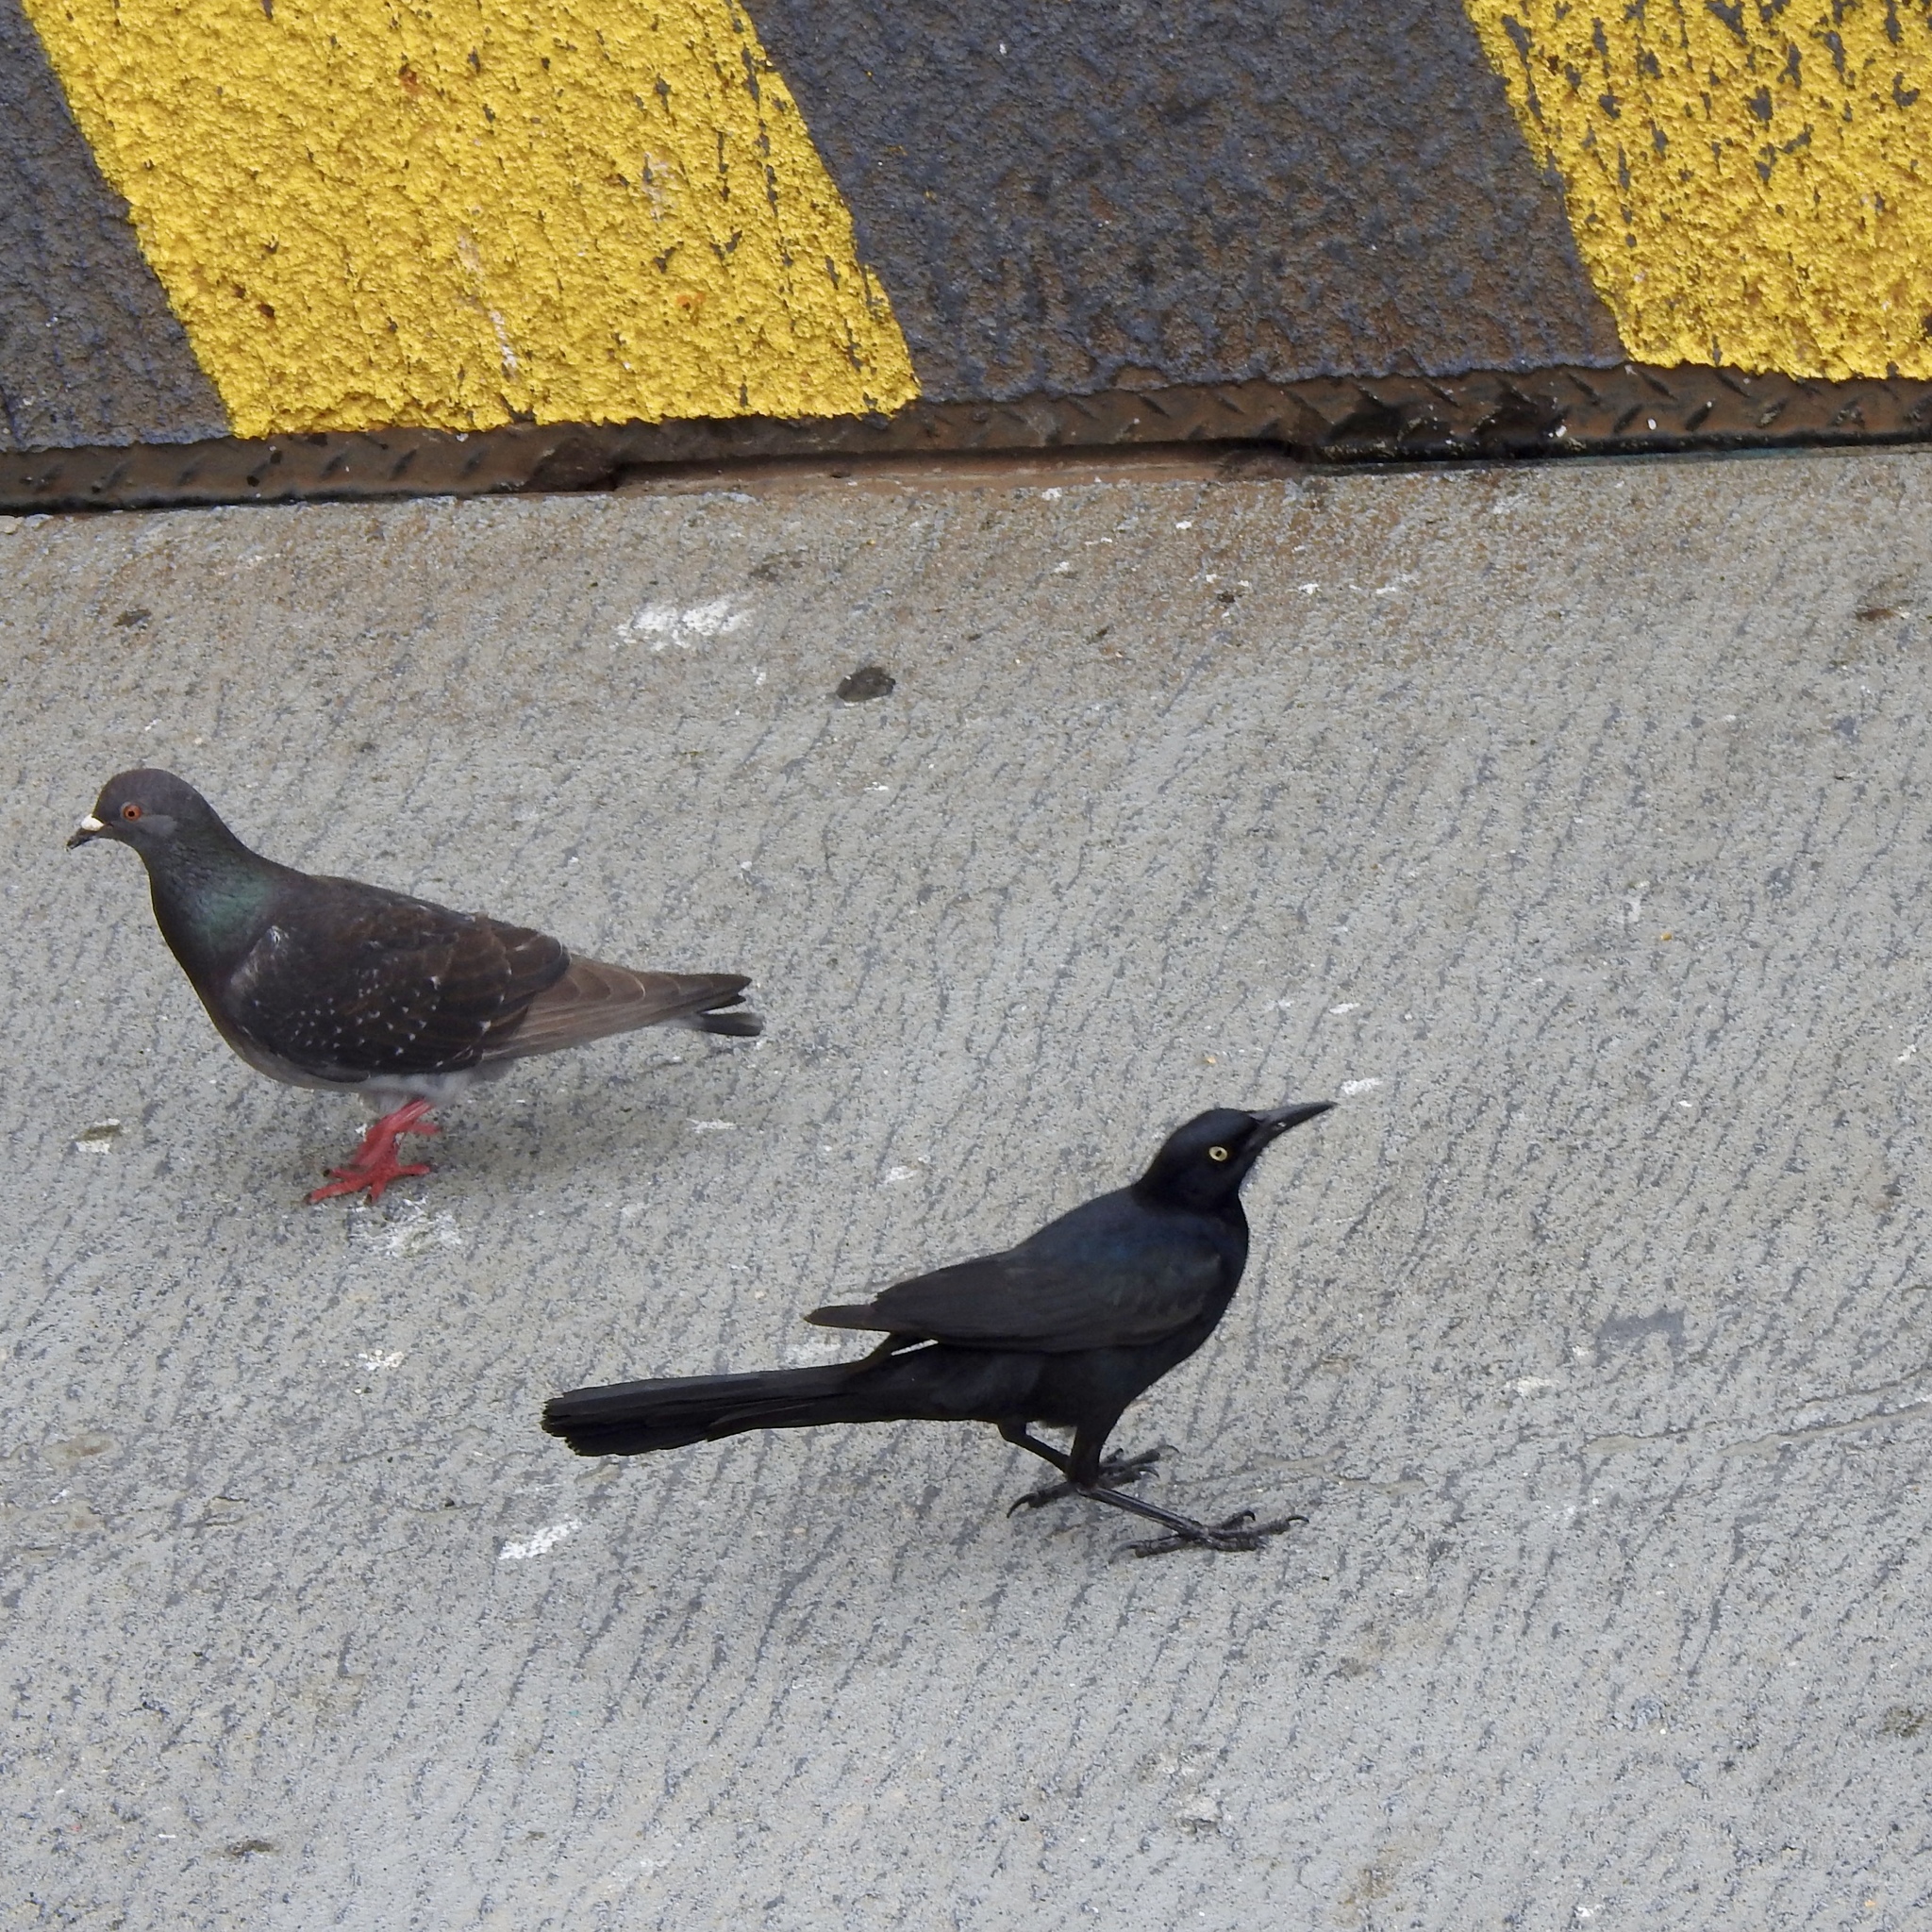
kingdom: Animalia
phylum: Chordata
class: Aves
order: Passeriformes
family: Icteridae
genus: Quiscalus
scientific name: Quiscalus mexicanus
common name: Great-tailed grackle
